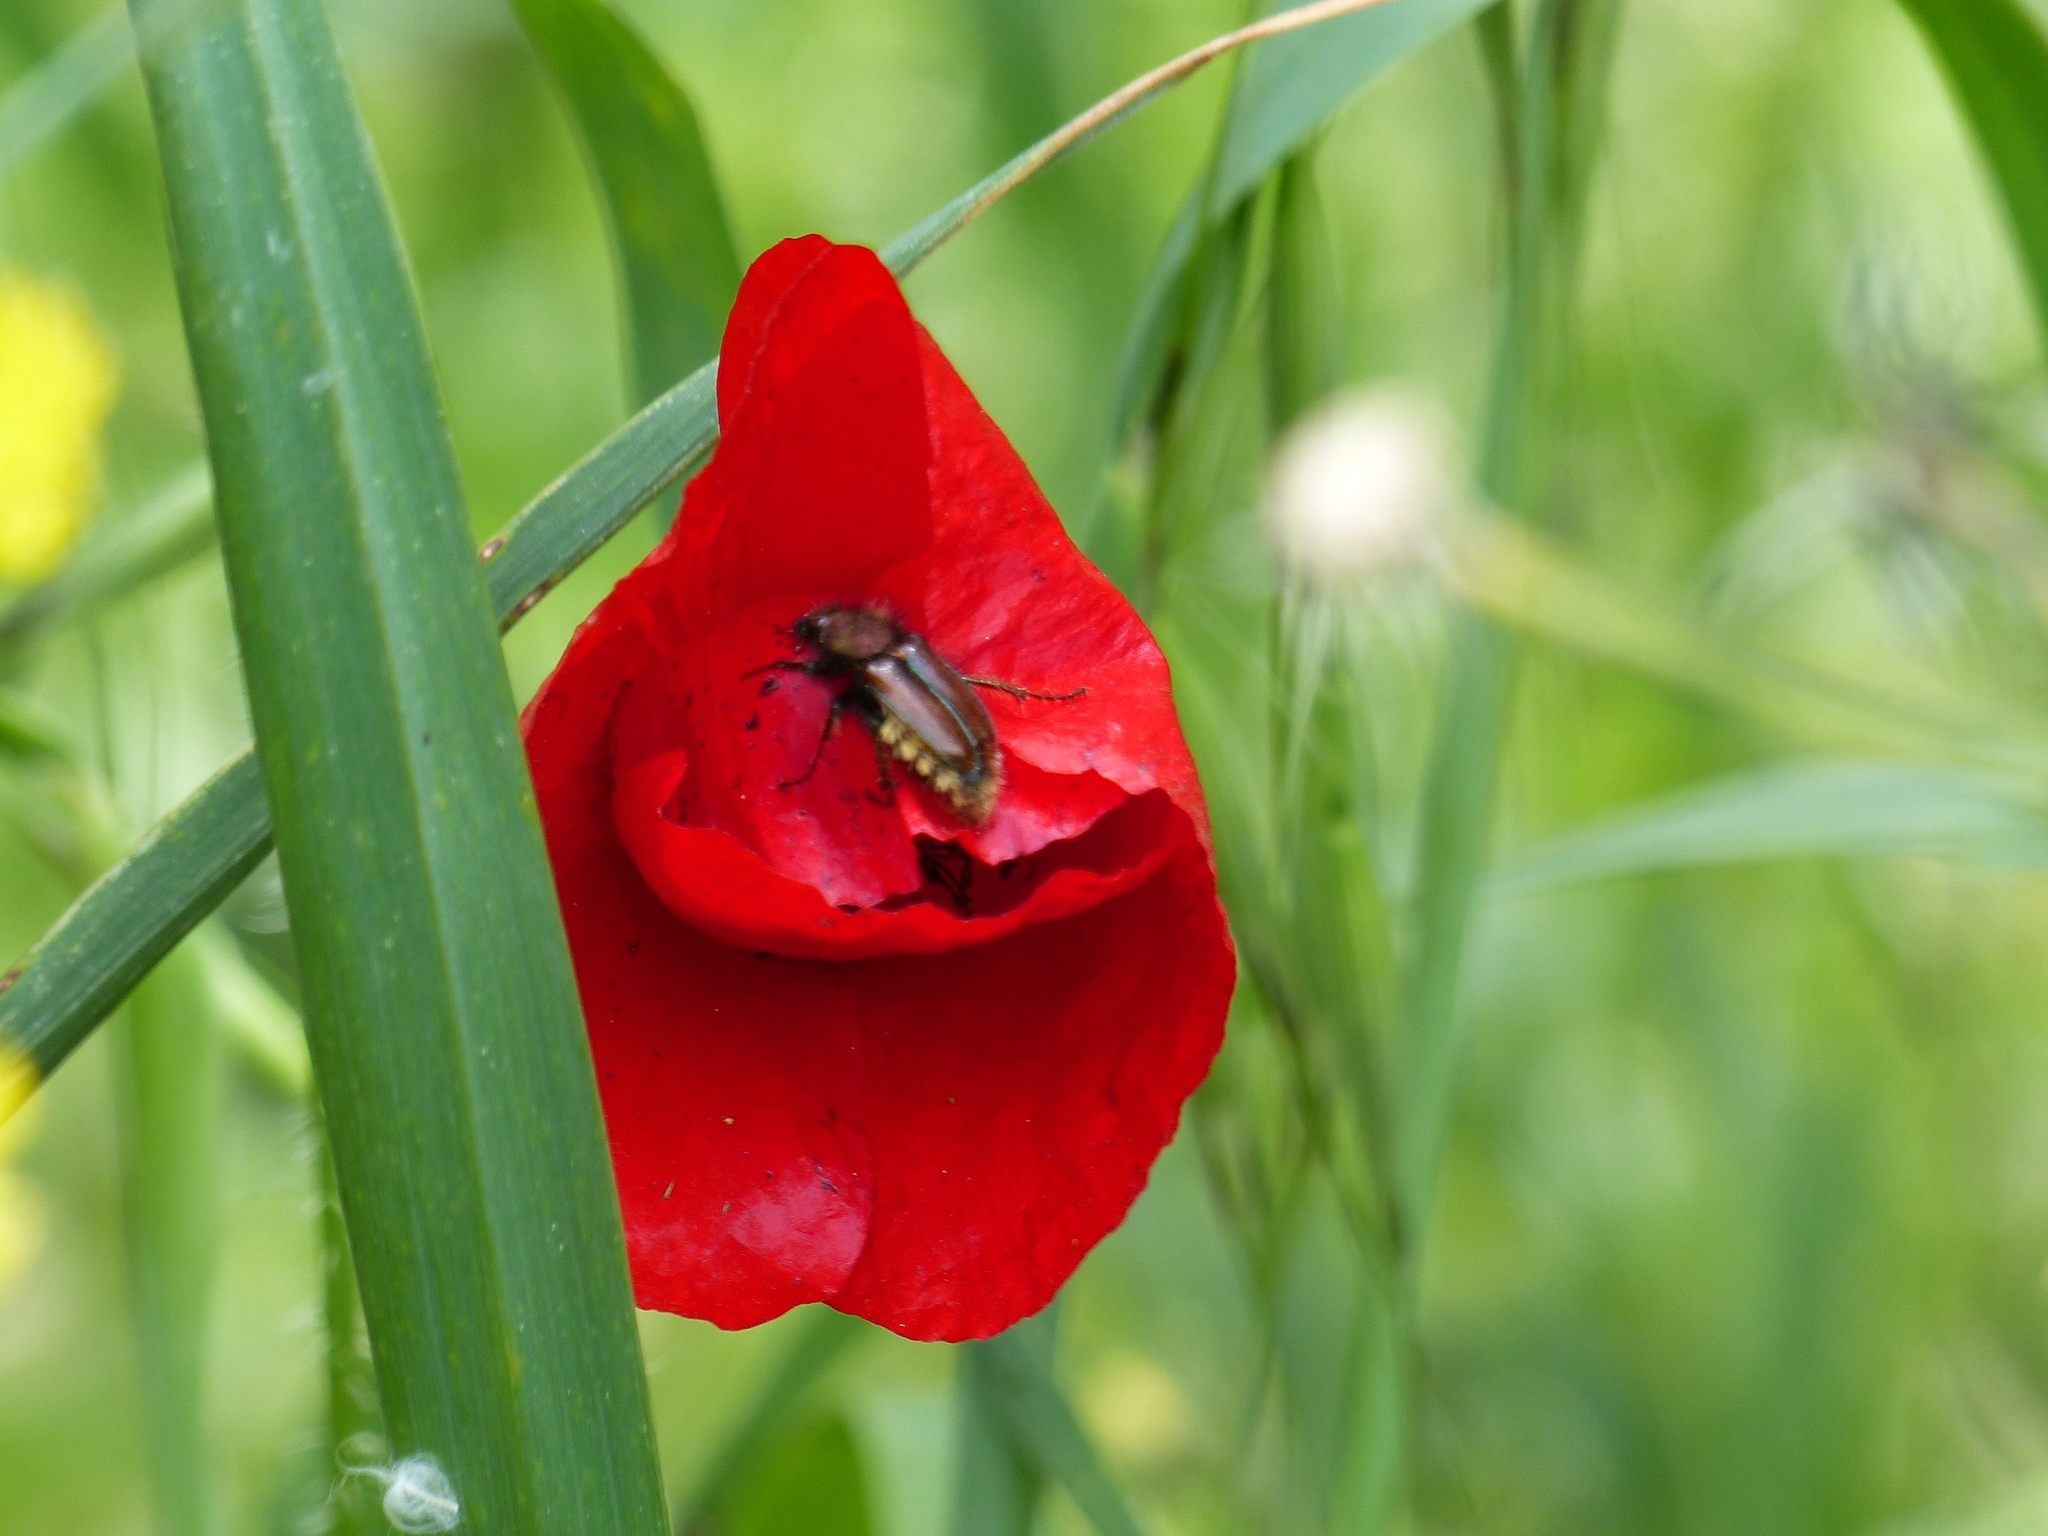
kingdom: Animalia
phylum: Arthropoda
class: Insecta
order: Coleoptera
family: Glaphyridae
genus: Pygopleurus
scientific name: Pygopleurus chrysonotus
